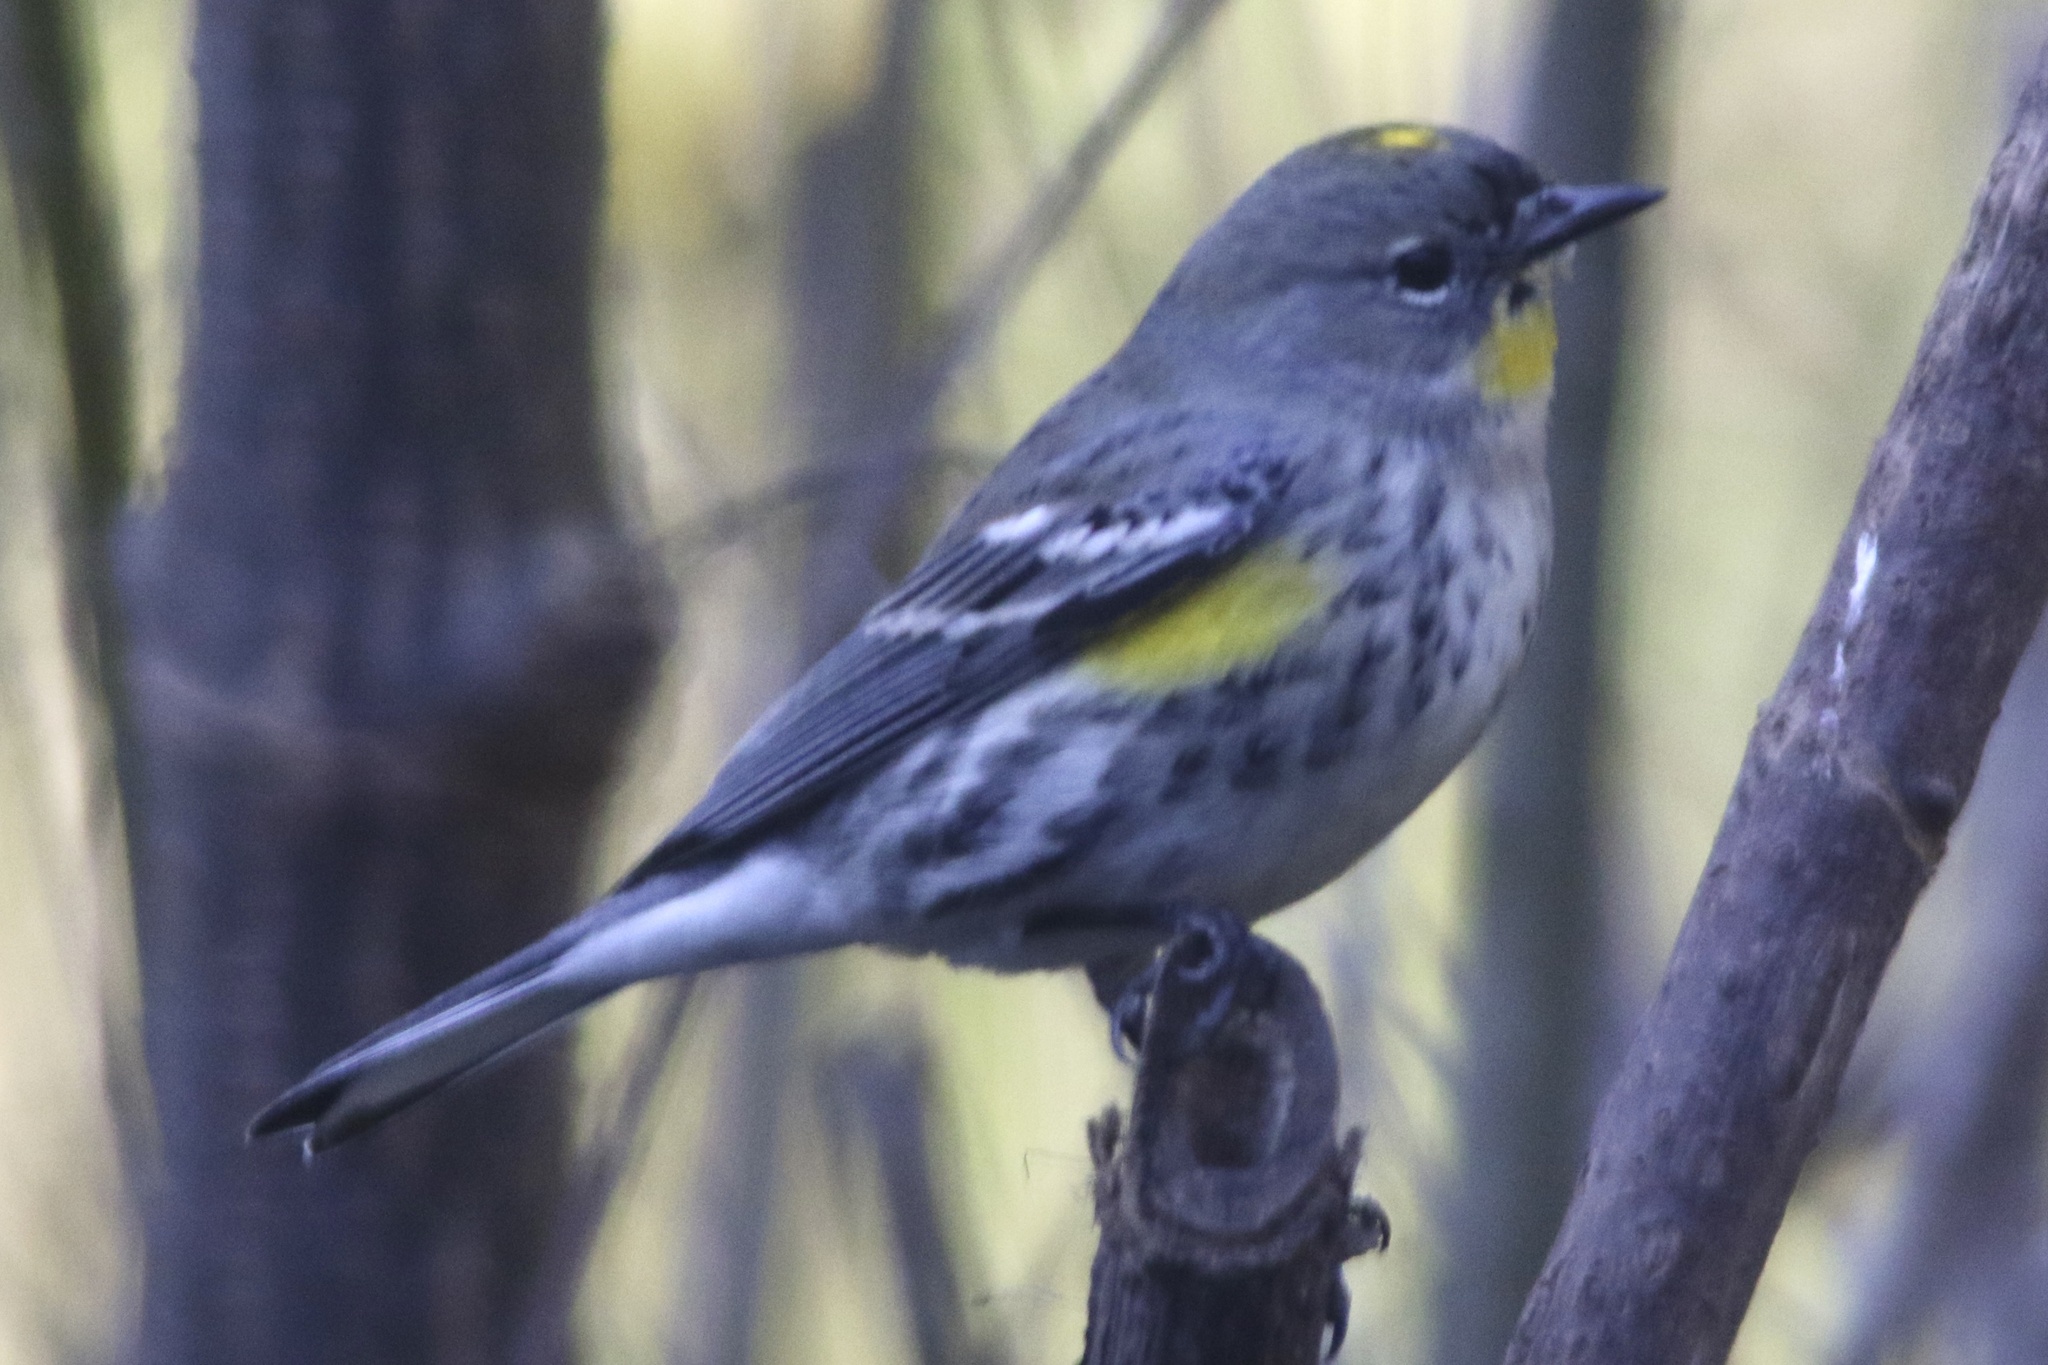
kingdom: Animalia
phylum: Chordata
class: Aves
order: Passeriformes
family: Parulidae
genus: Setophaga
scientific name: Setophaga coronata
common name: Myrtle warbler
